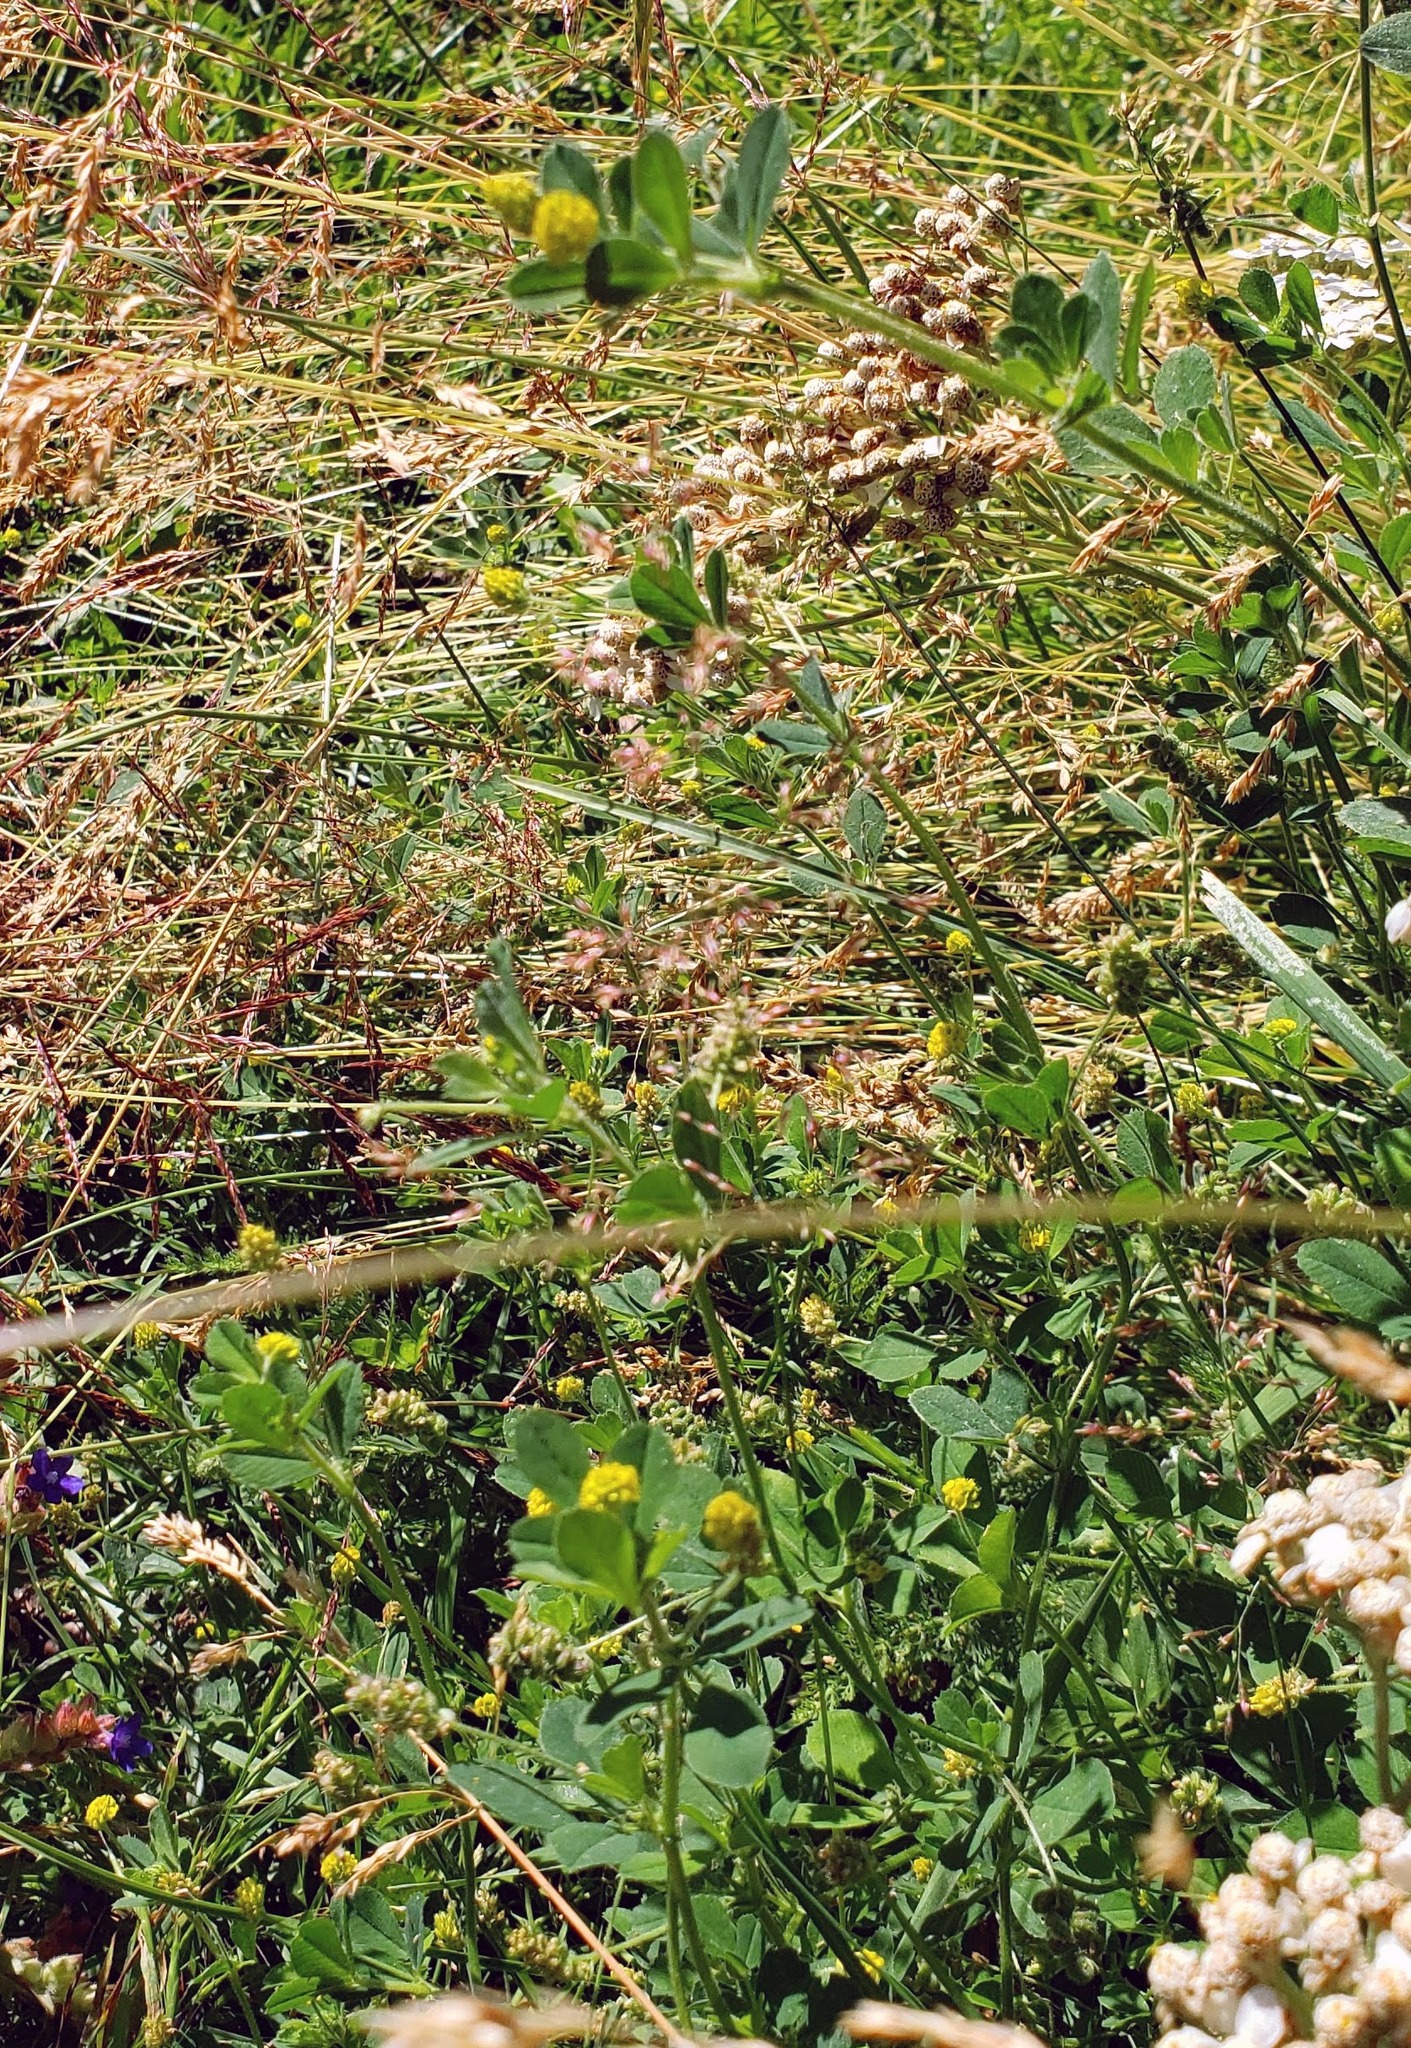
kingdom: Plantae
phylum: Tracheophyta
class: Magnoliopsida
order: Fabales
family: Fabaceae
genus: Medicago
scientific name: Medicago lupulina
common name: Black medick
